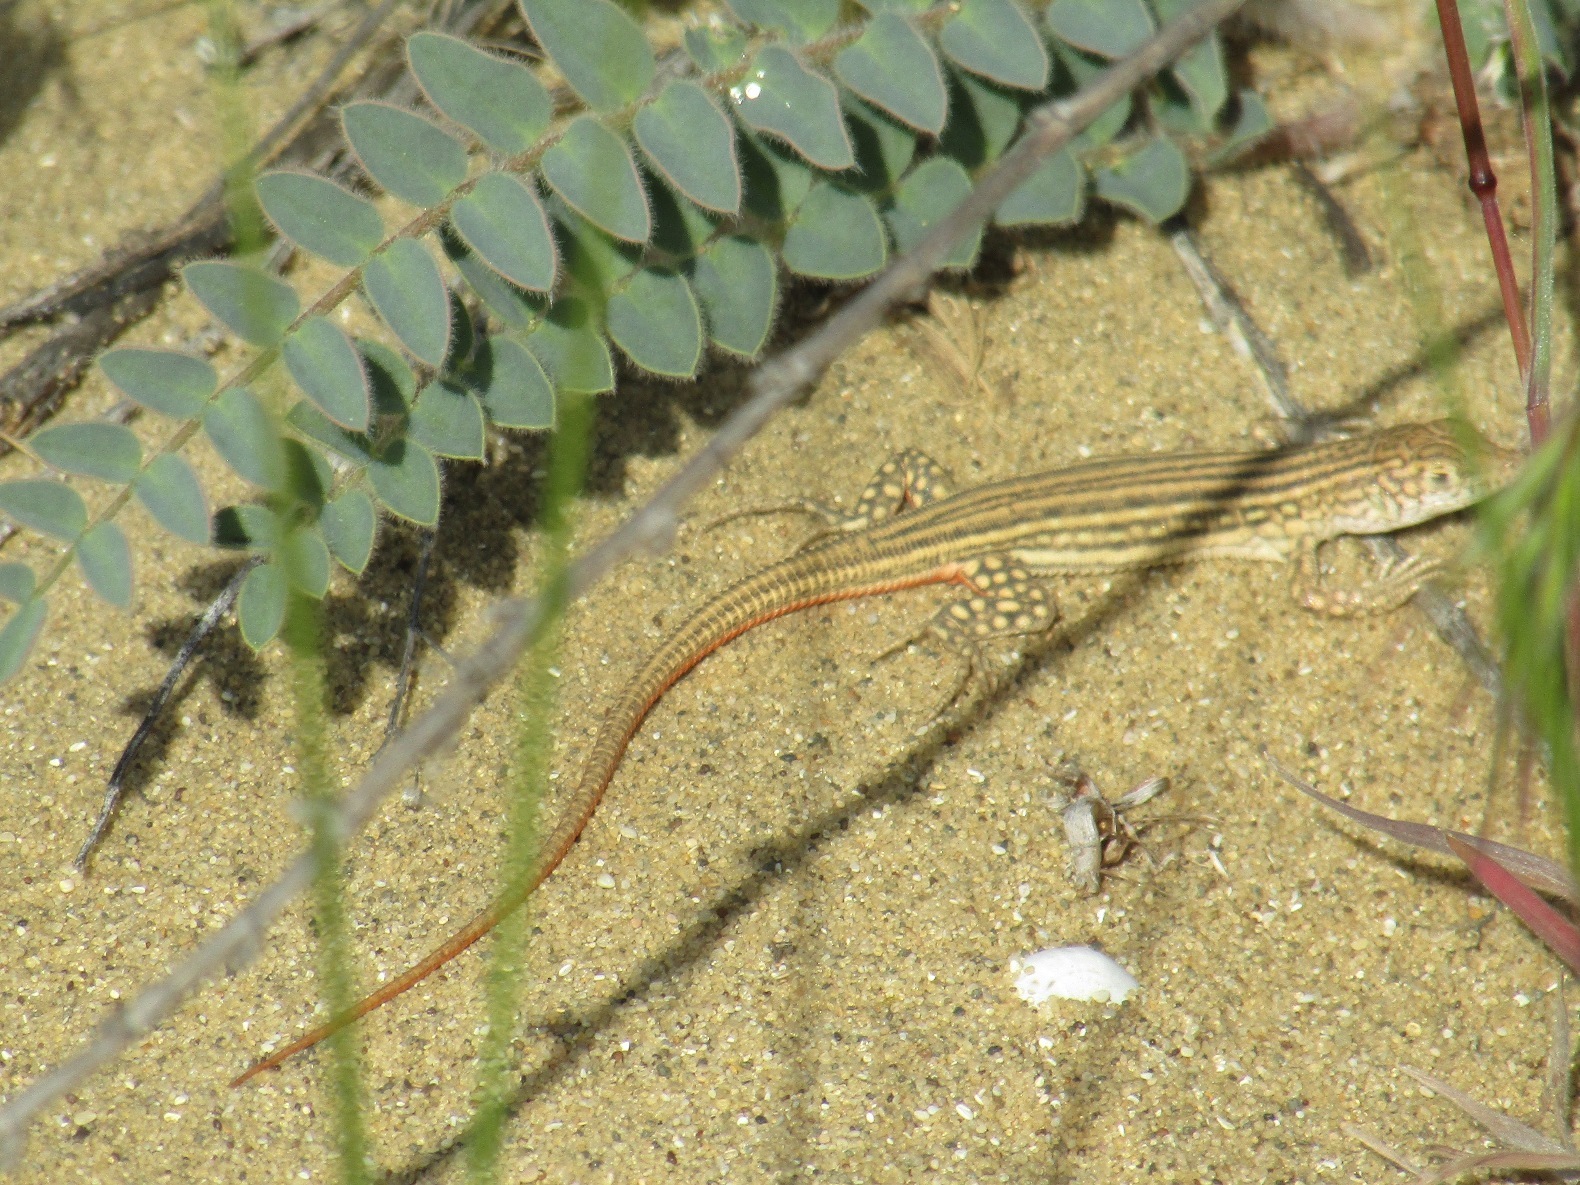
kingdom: Animalia
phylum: Chordata
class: Squamata
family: Lacertidae
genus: Eremias
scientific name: Eremias velox
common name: Central asian racerunner
